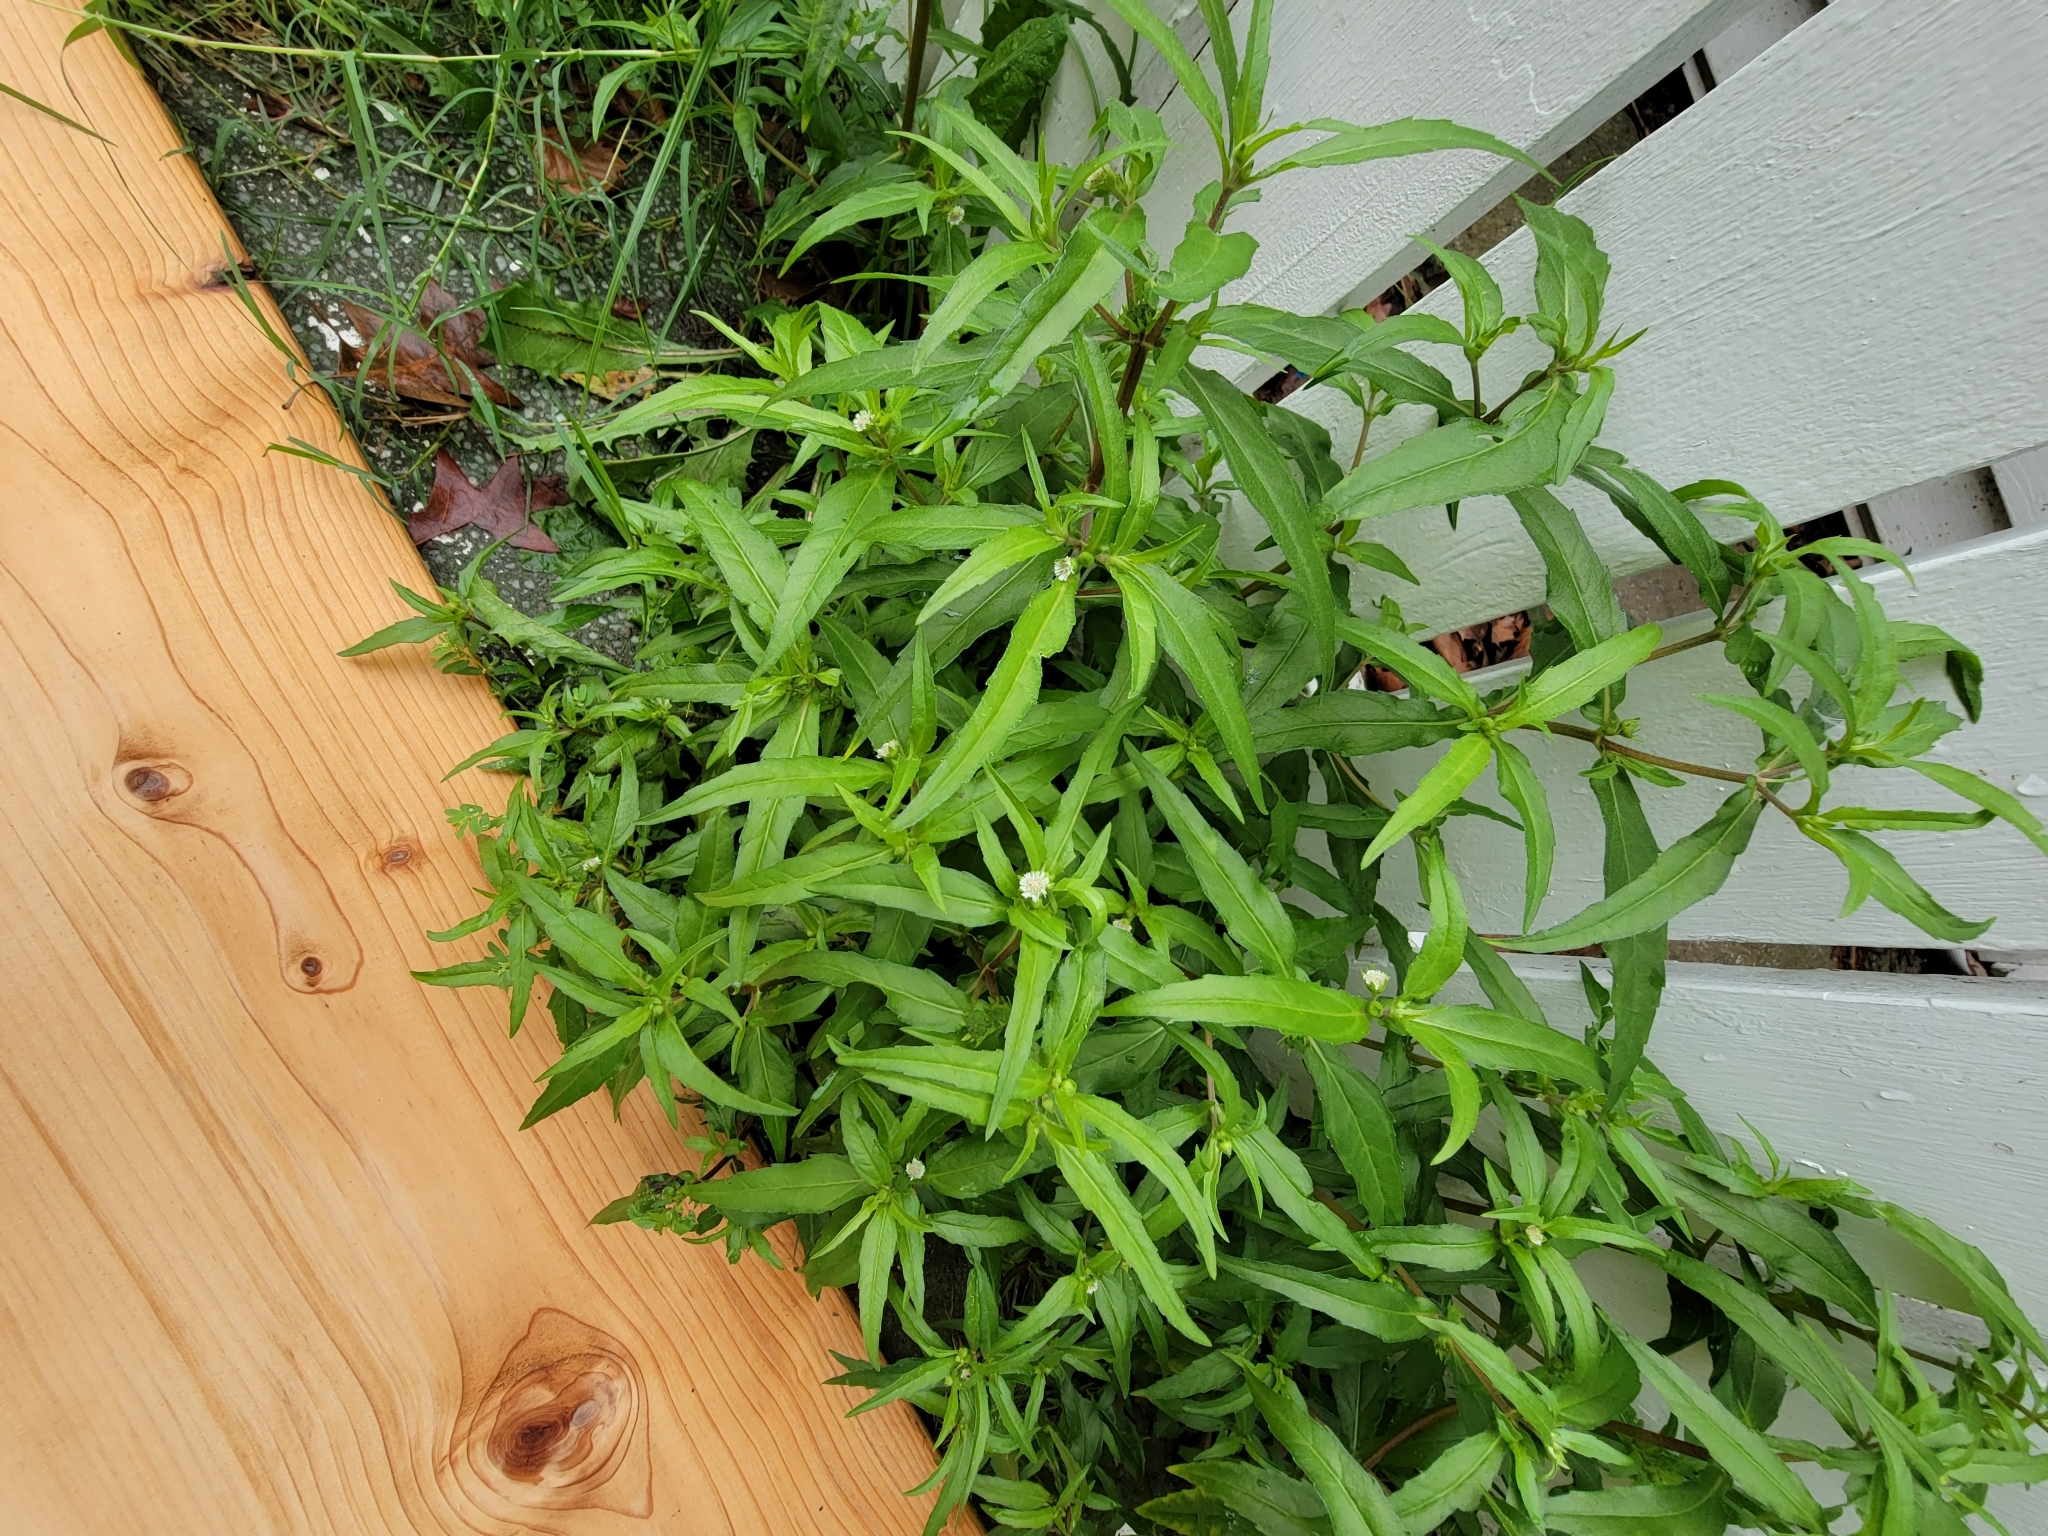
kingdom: Plantae
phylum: Tracheophyta
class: Magnoliopsida
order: Asterales
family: Asteraceae
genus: Eclipta
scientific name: Eclipta prostrata
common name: False daisy
